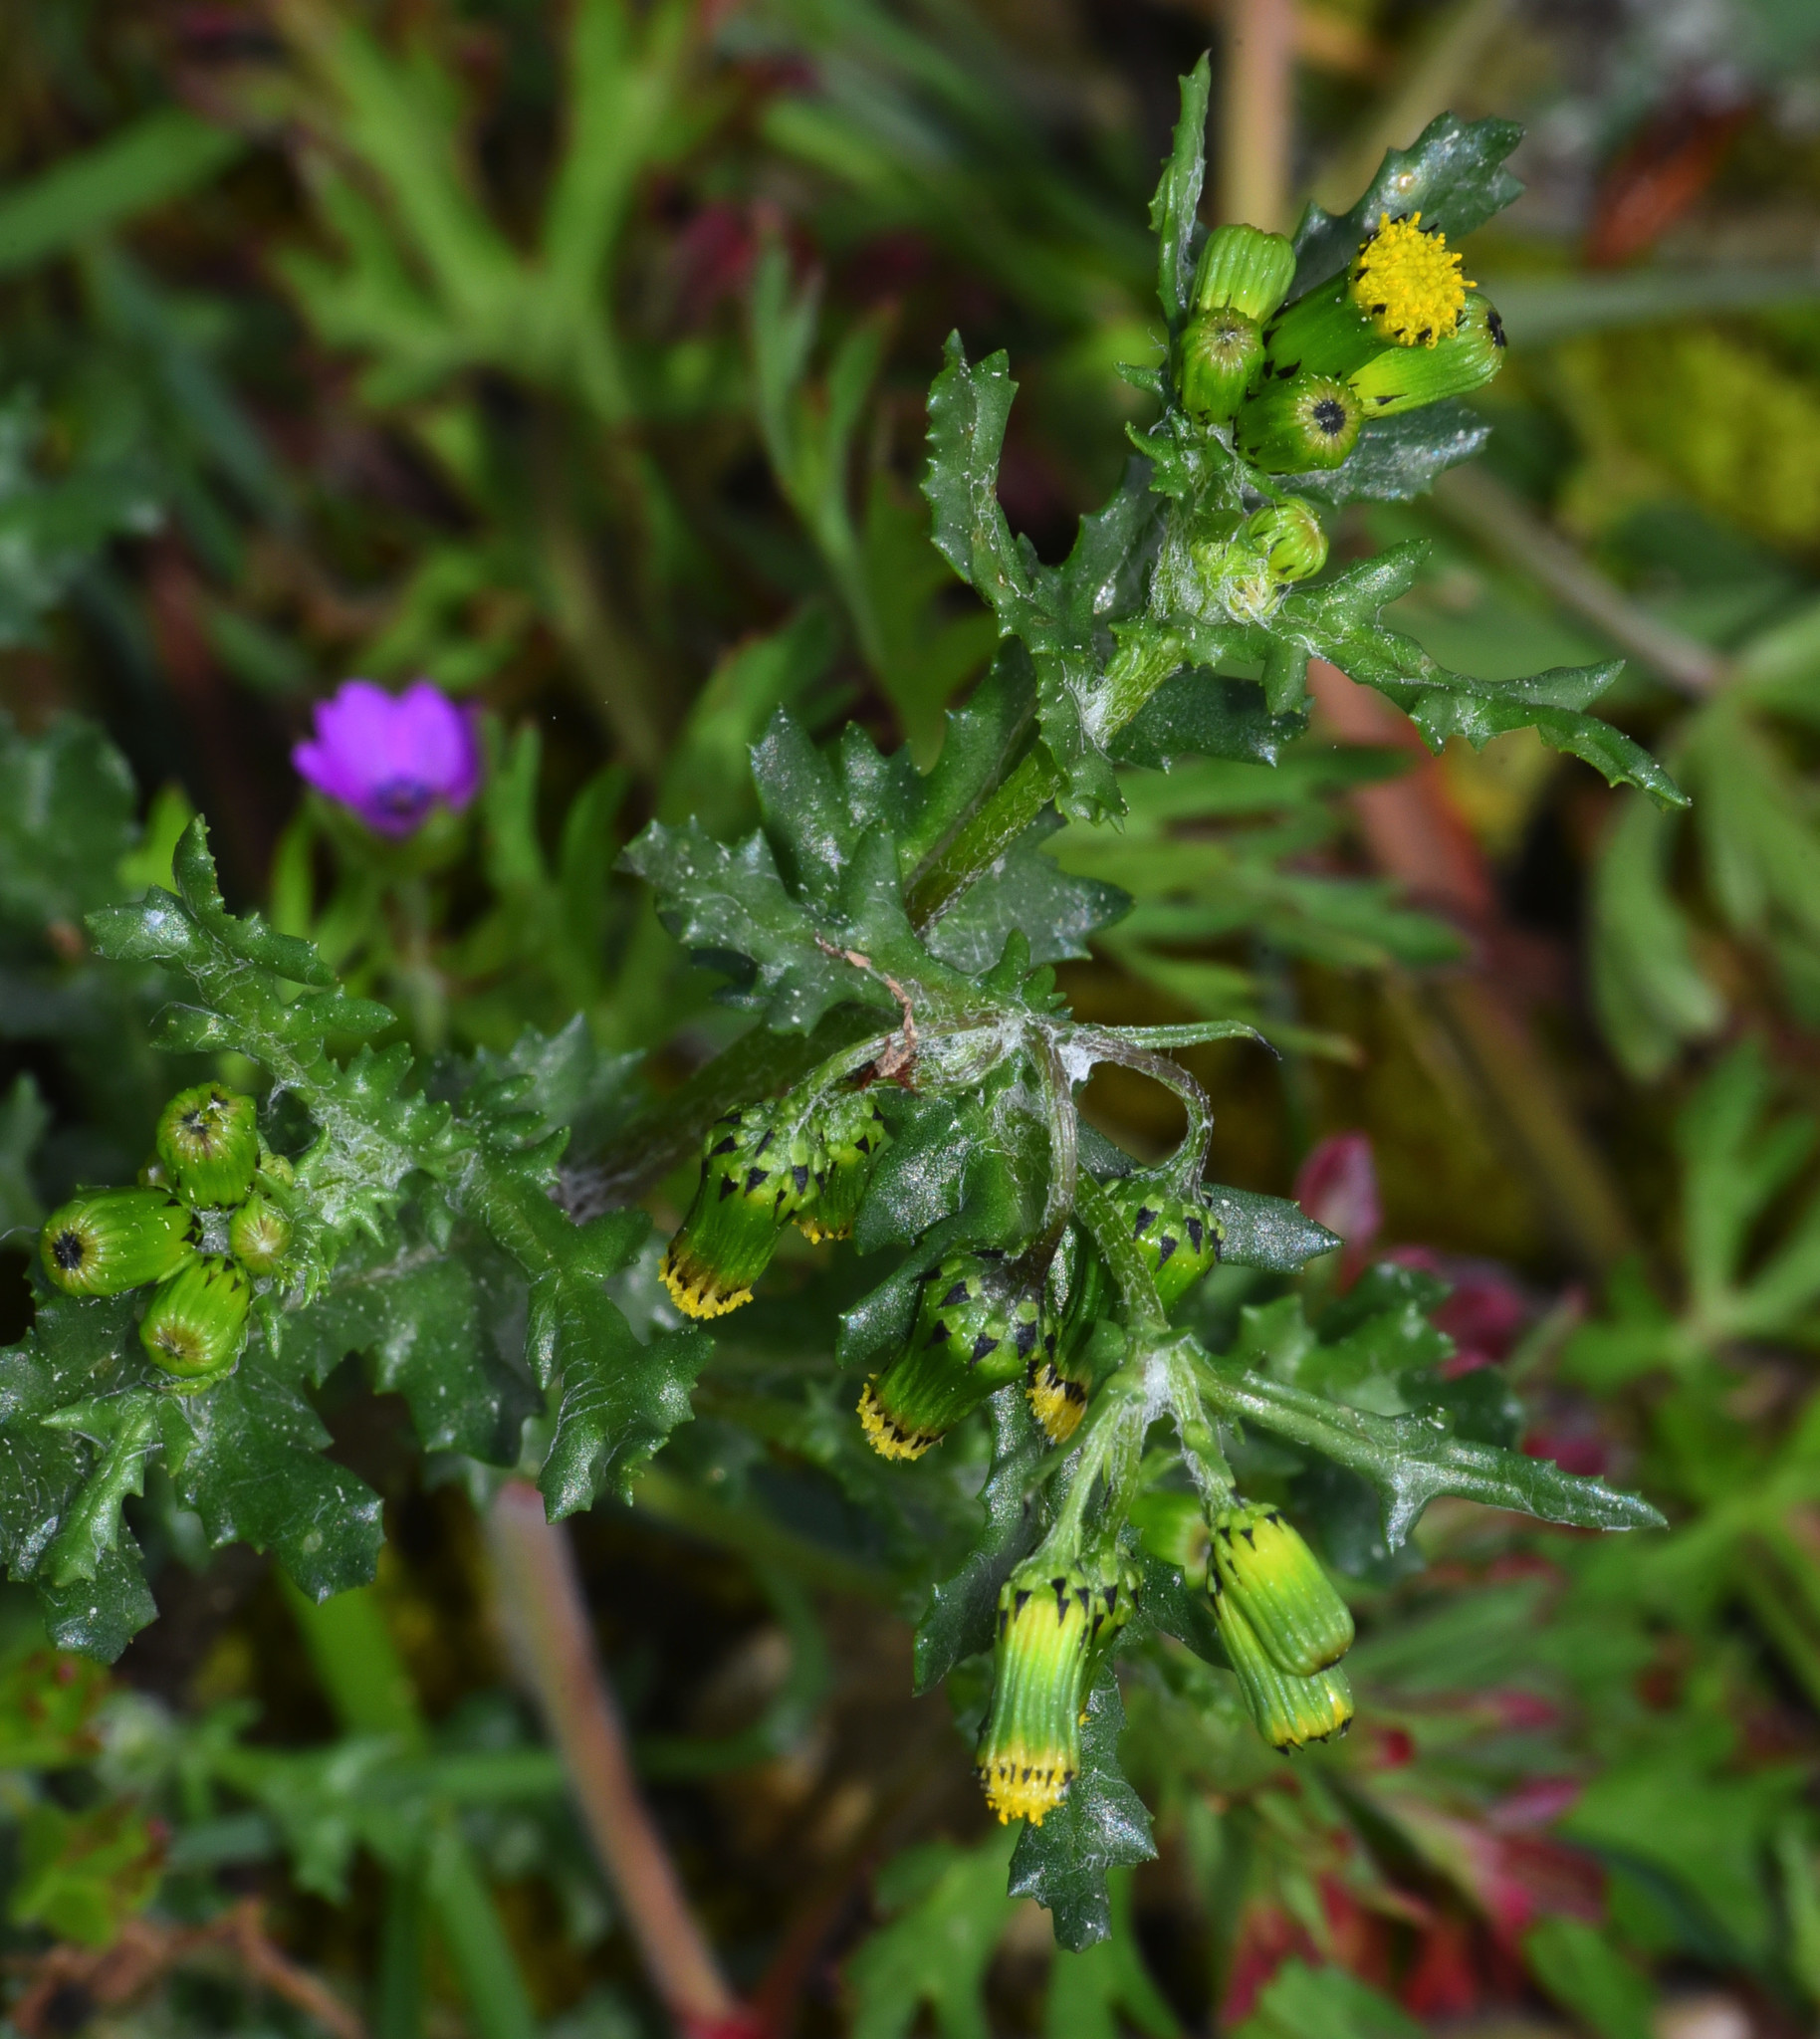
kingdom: Plantae
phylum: Tracheophyta
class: Magnoliopsida
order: Asterales
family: Asteraceae
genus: Senecio
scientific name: Senecio vulgaris
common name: Old-man-in-the-spring
